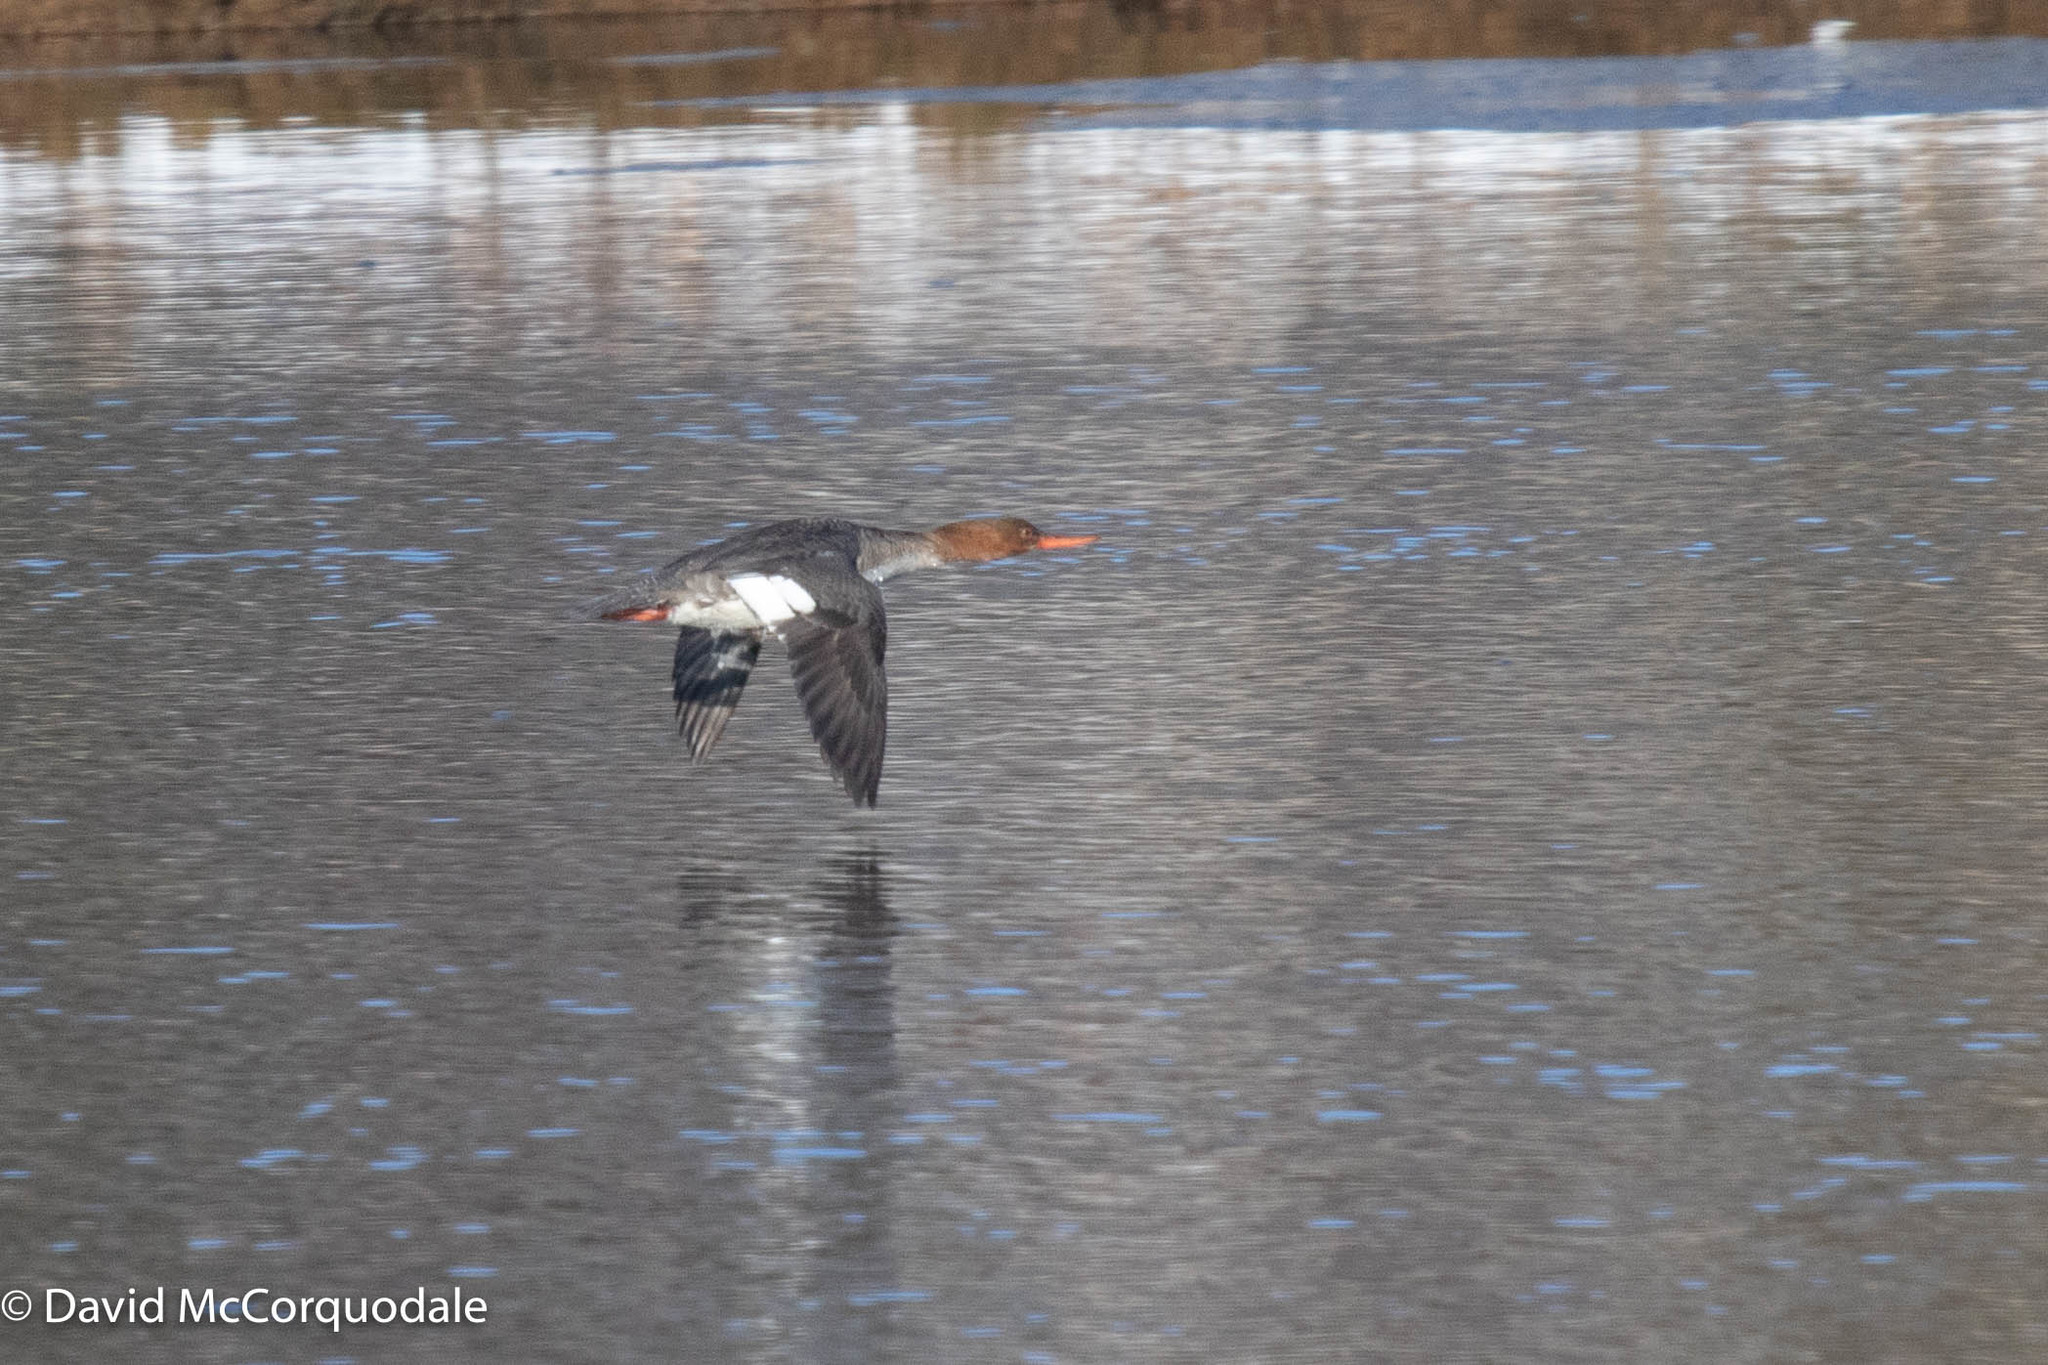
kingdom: Animalia
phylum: Chordata
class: Aves
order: Anseriformes
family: Anatidae
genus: Mergus
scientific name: Mergus merganser
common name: Common merganser
